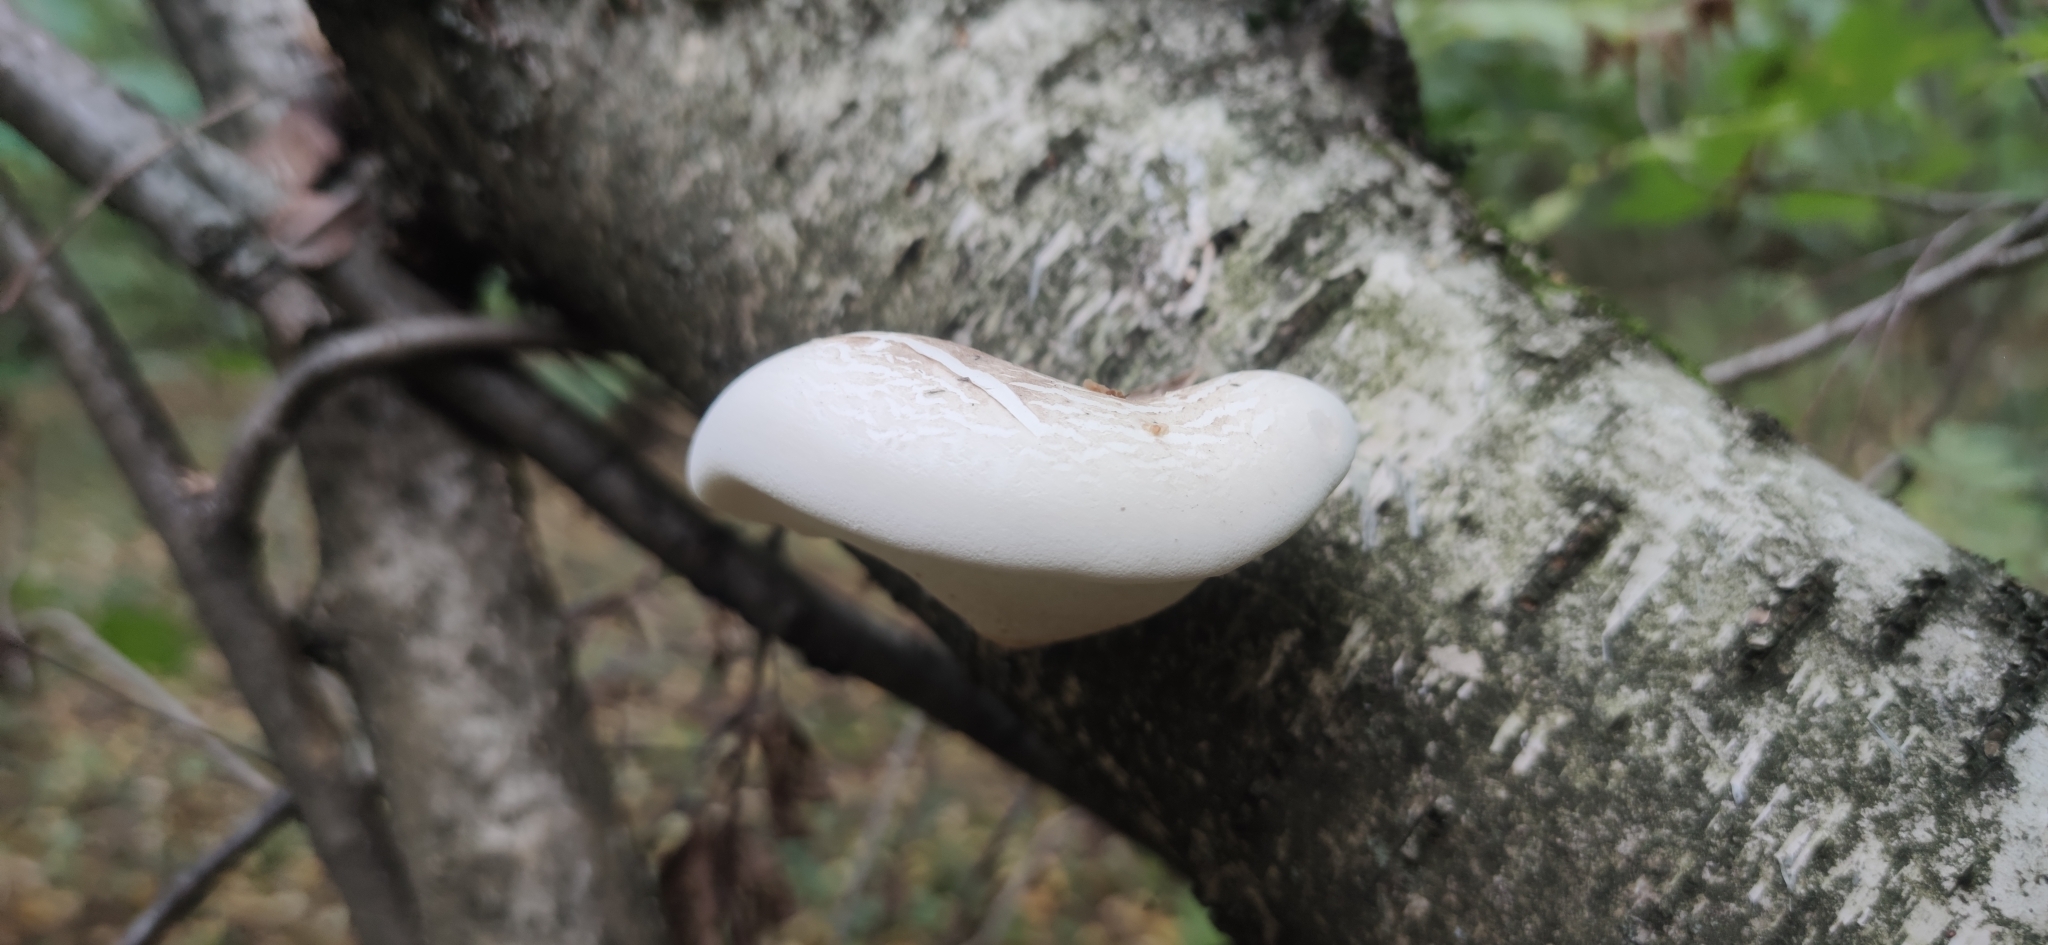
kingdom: Fungi
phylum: Basidiomycota
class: Agaricomycetes
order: Polyporales
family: Fomitopsidaceae
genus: Fomitopsis
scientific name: Fomitopsis betulina
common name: Birch polypore
